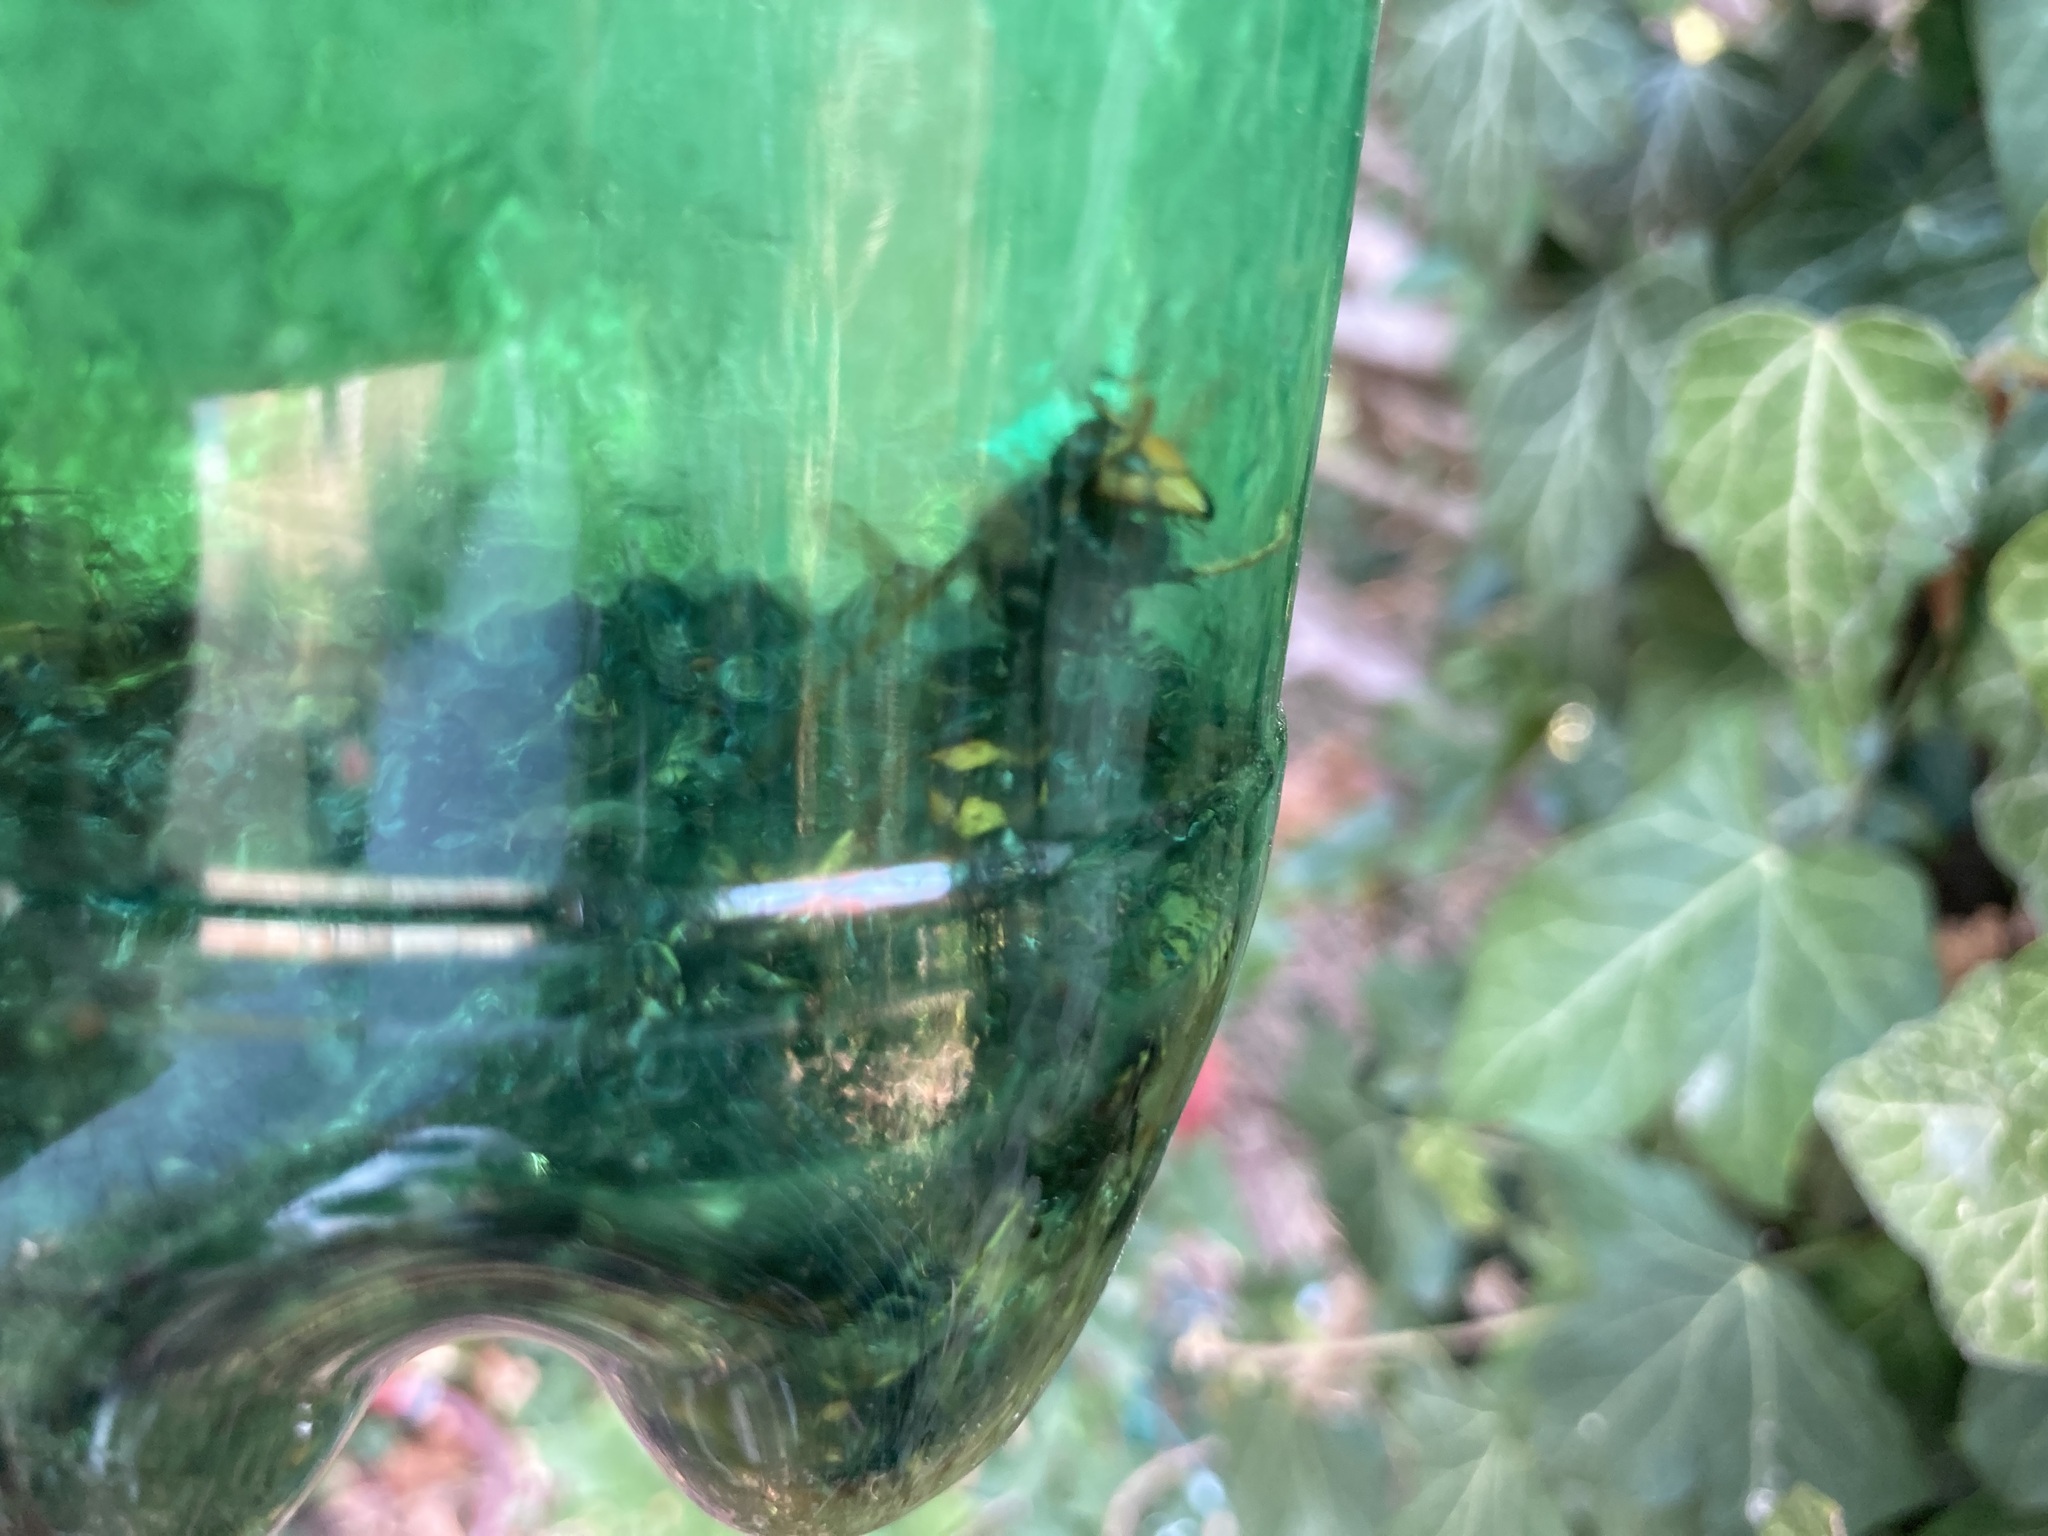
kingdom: Animalia
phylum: Arthropoda
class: Insecta
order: Hymenoptera
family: Vespidae
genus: Vespa
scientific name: Vespa velutina
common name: Asian hornet
